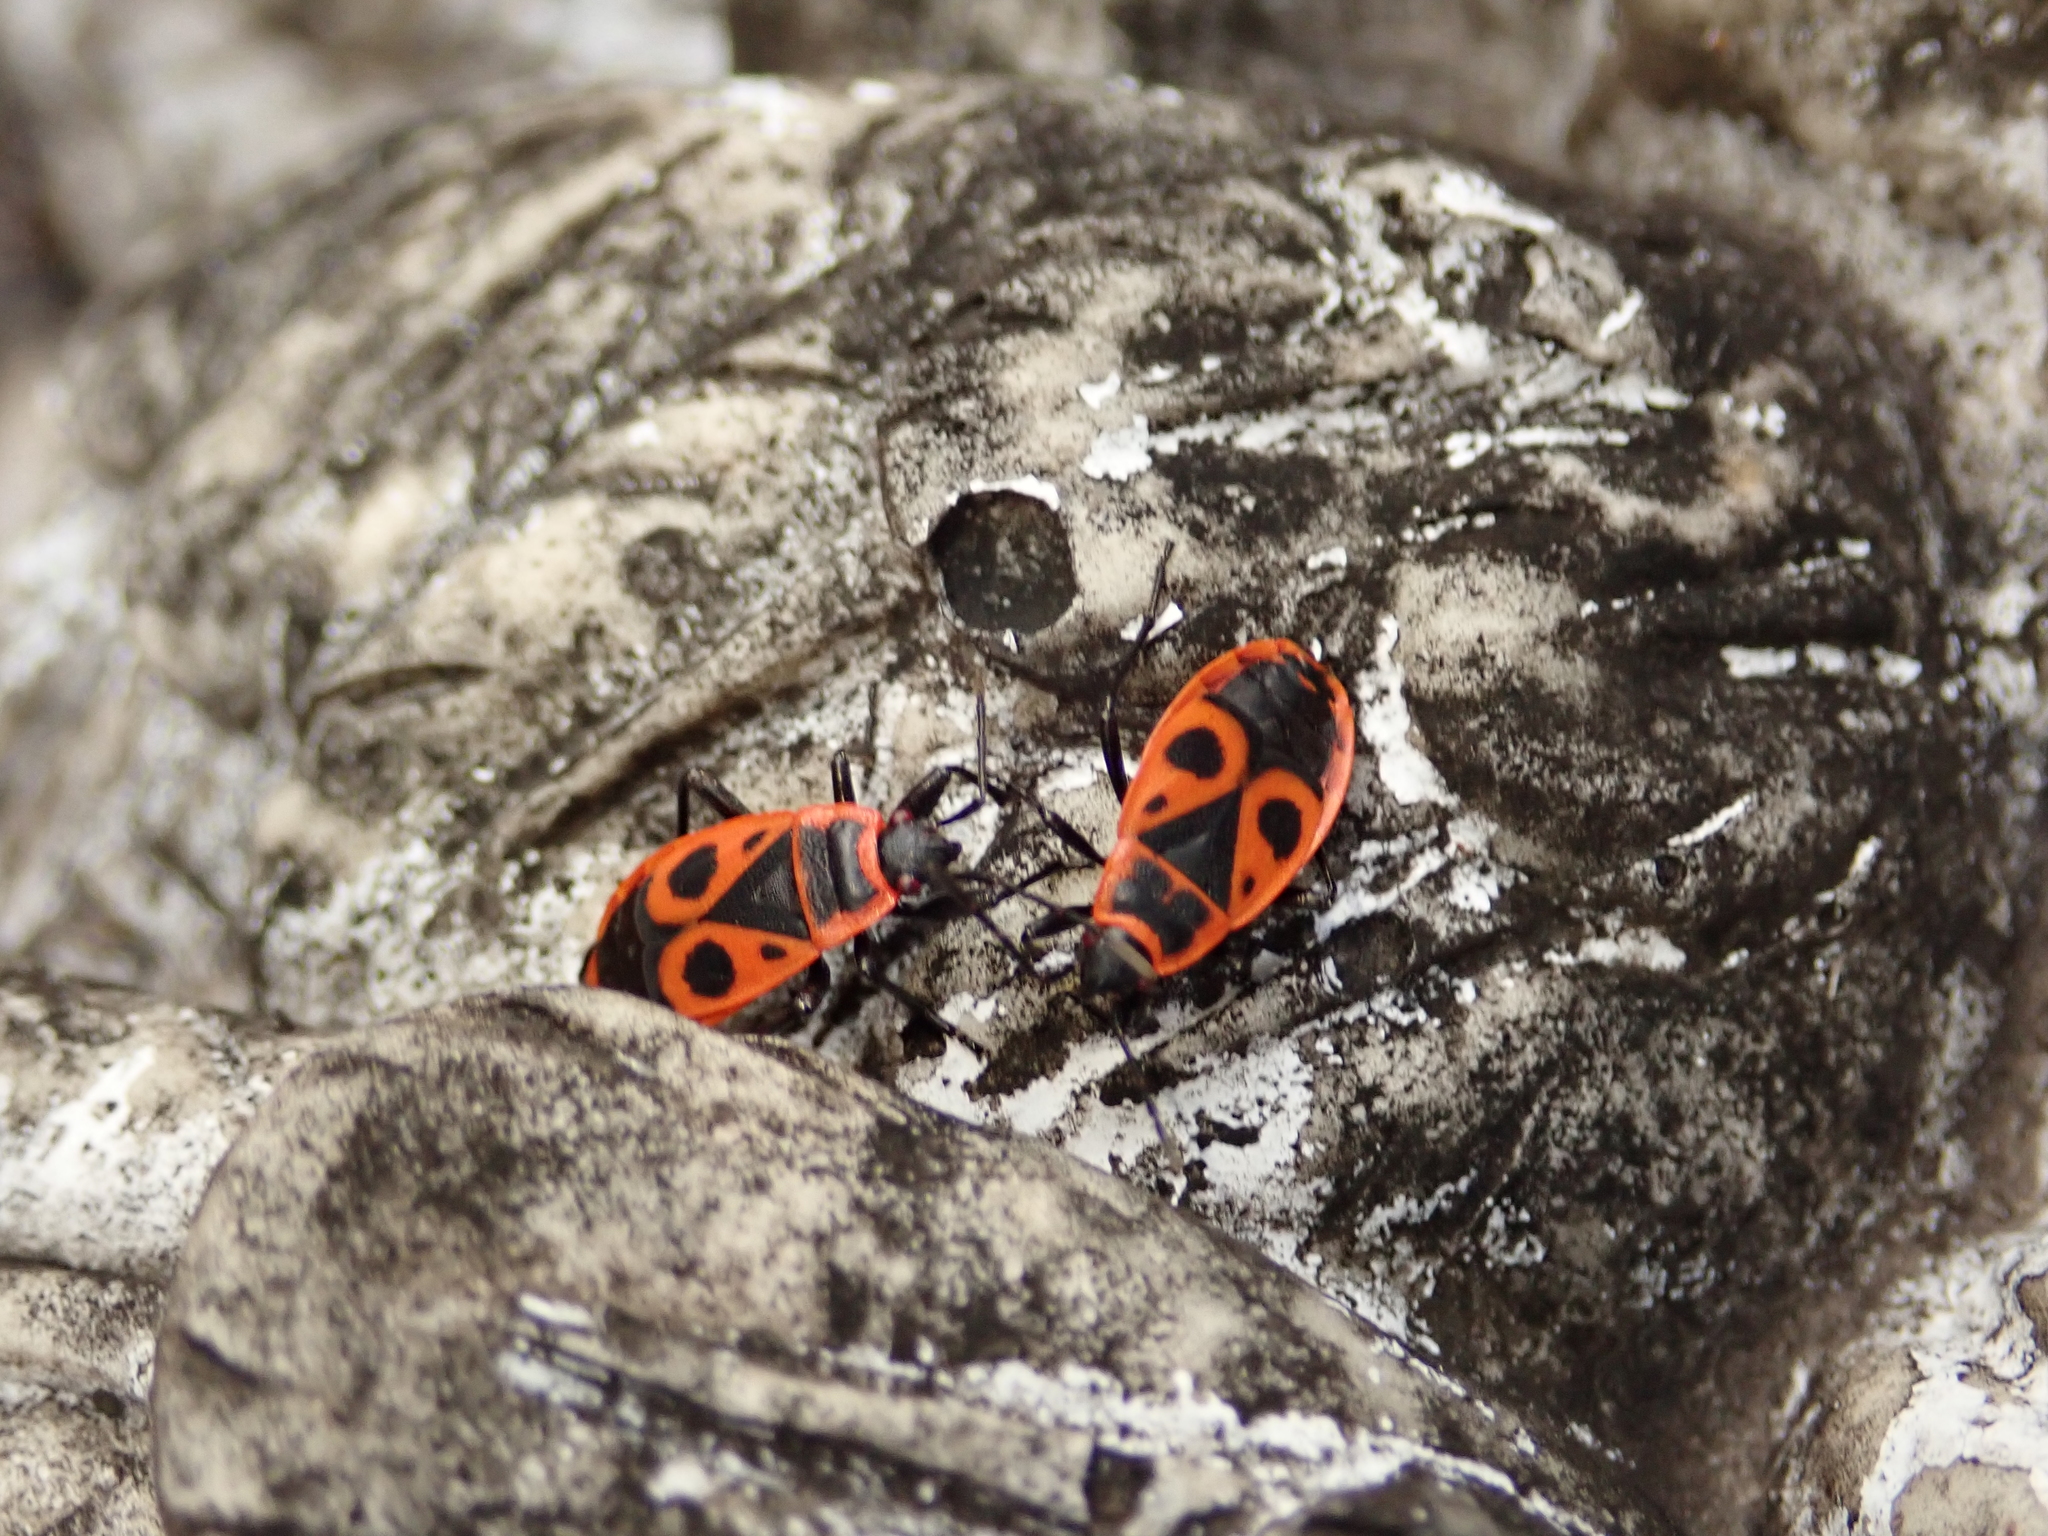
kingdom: Animalia
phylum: Arthropoda
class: Insecta
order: Hemiptera
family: Pyrrhocoridae
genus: Pyrrhocoris
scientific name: Pyrrhocoris apterus
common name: Firebug
